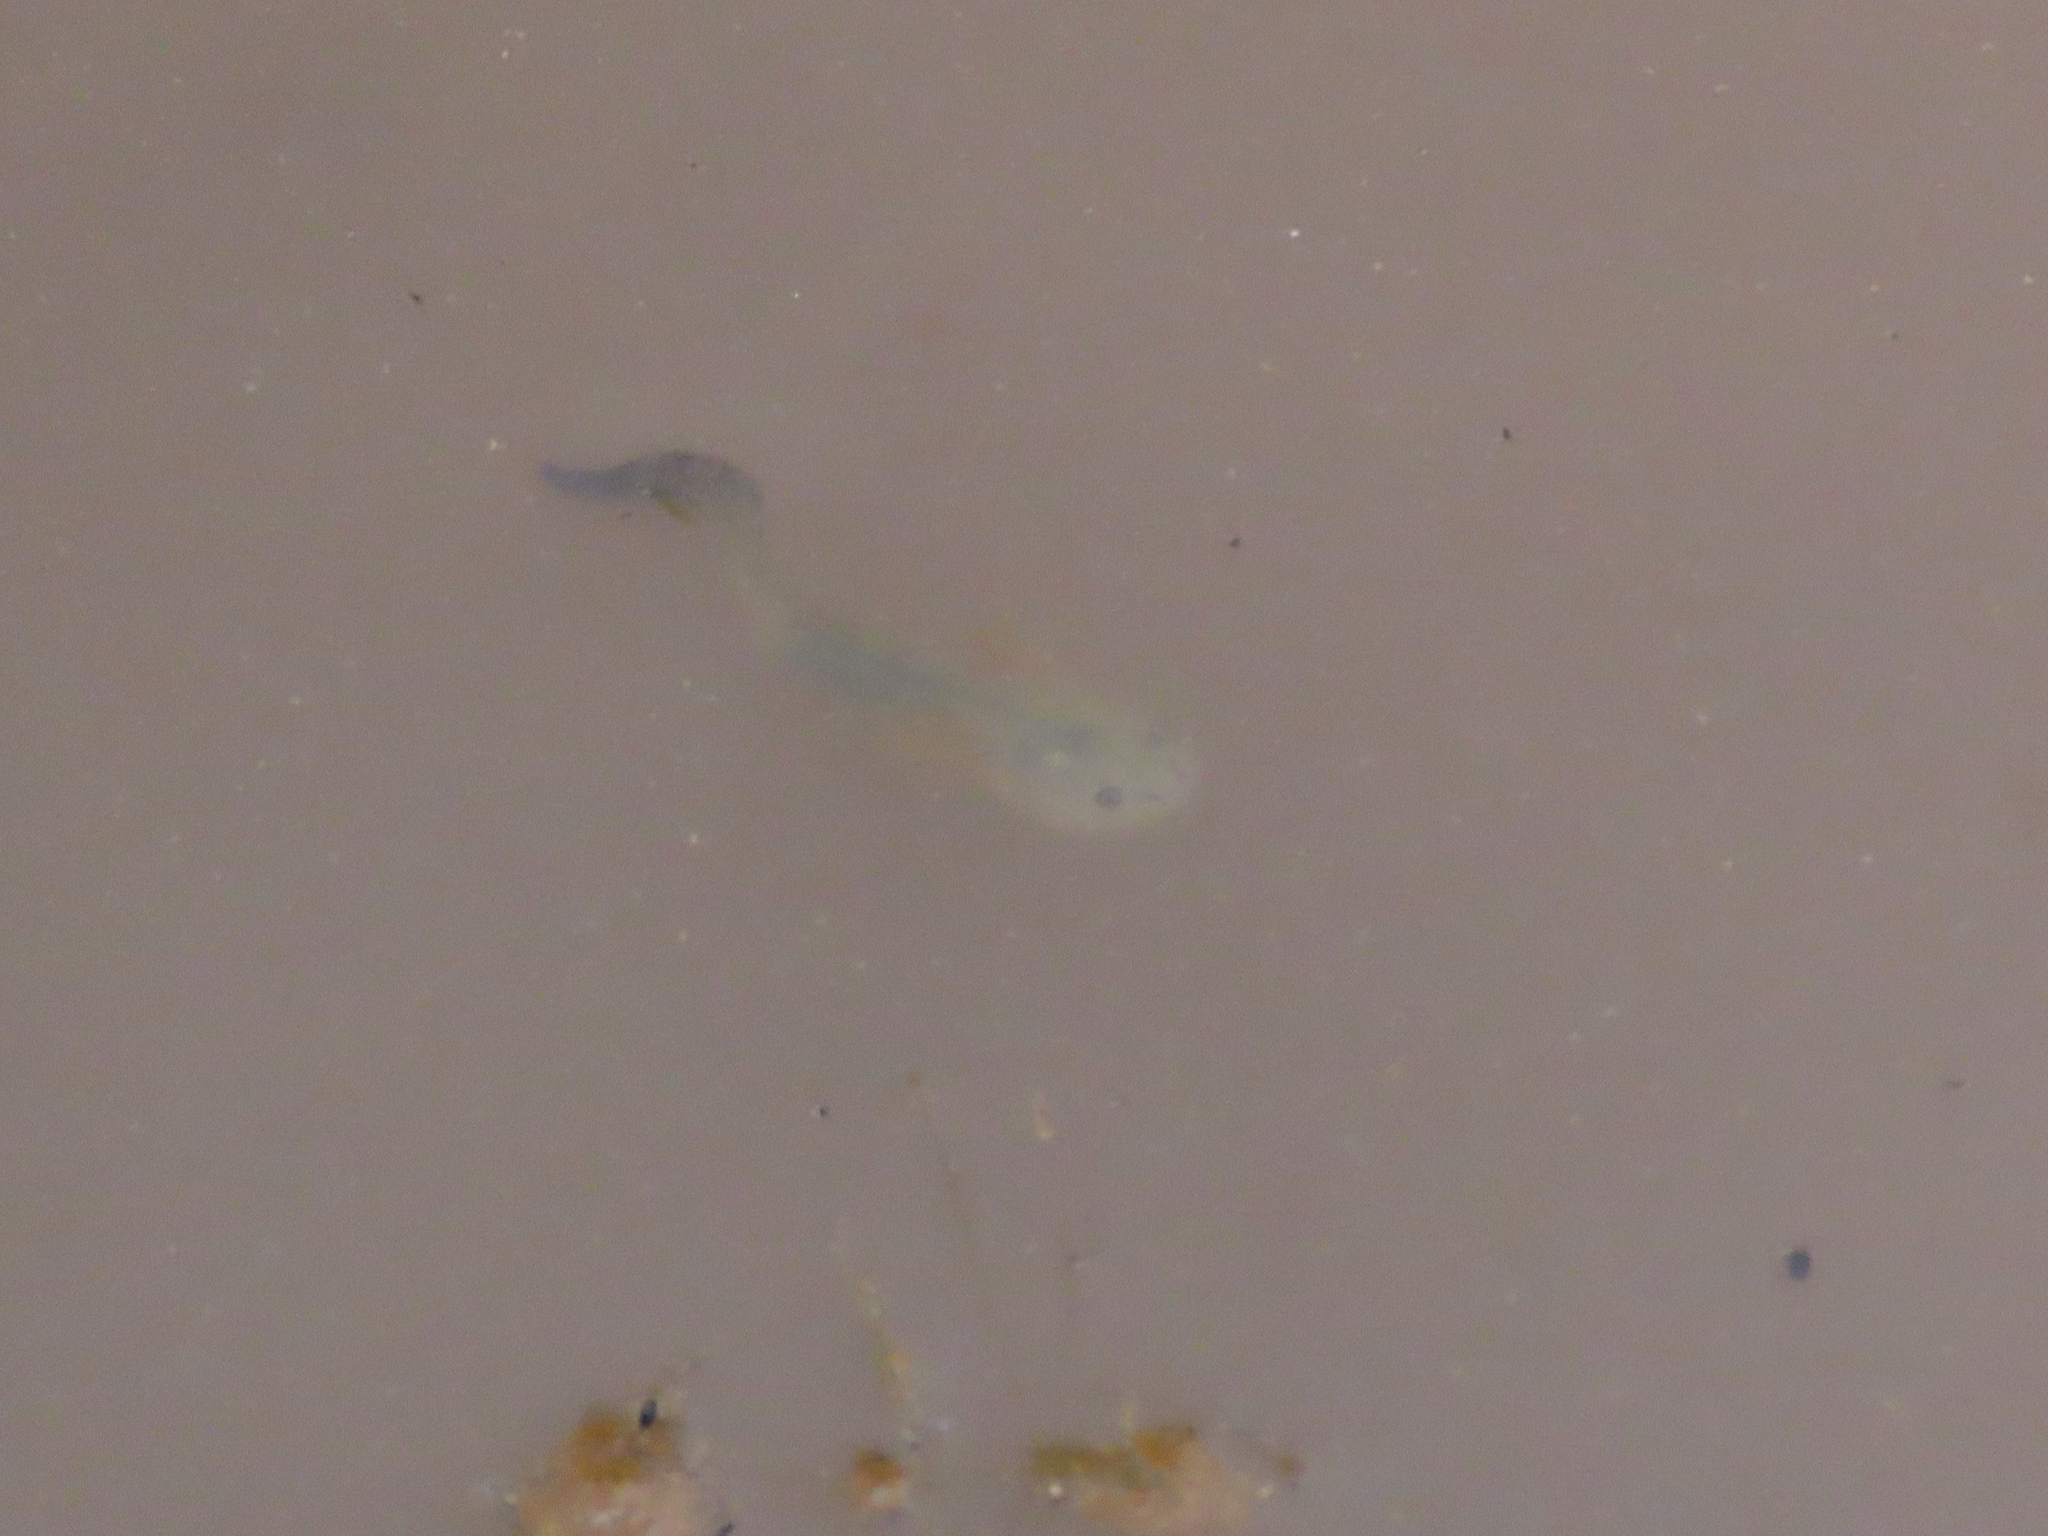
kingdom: Animalia
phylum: Chordata
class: Amphibia
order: Caudata
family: Ambystomatidae
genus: Ambystoma
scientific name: Ambystoma mavortium
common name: Western tiger salamander
